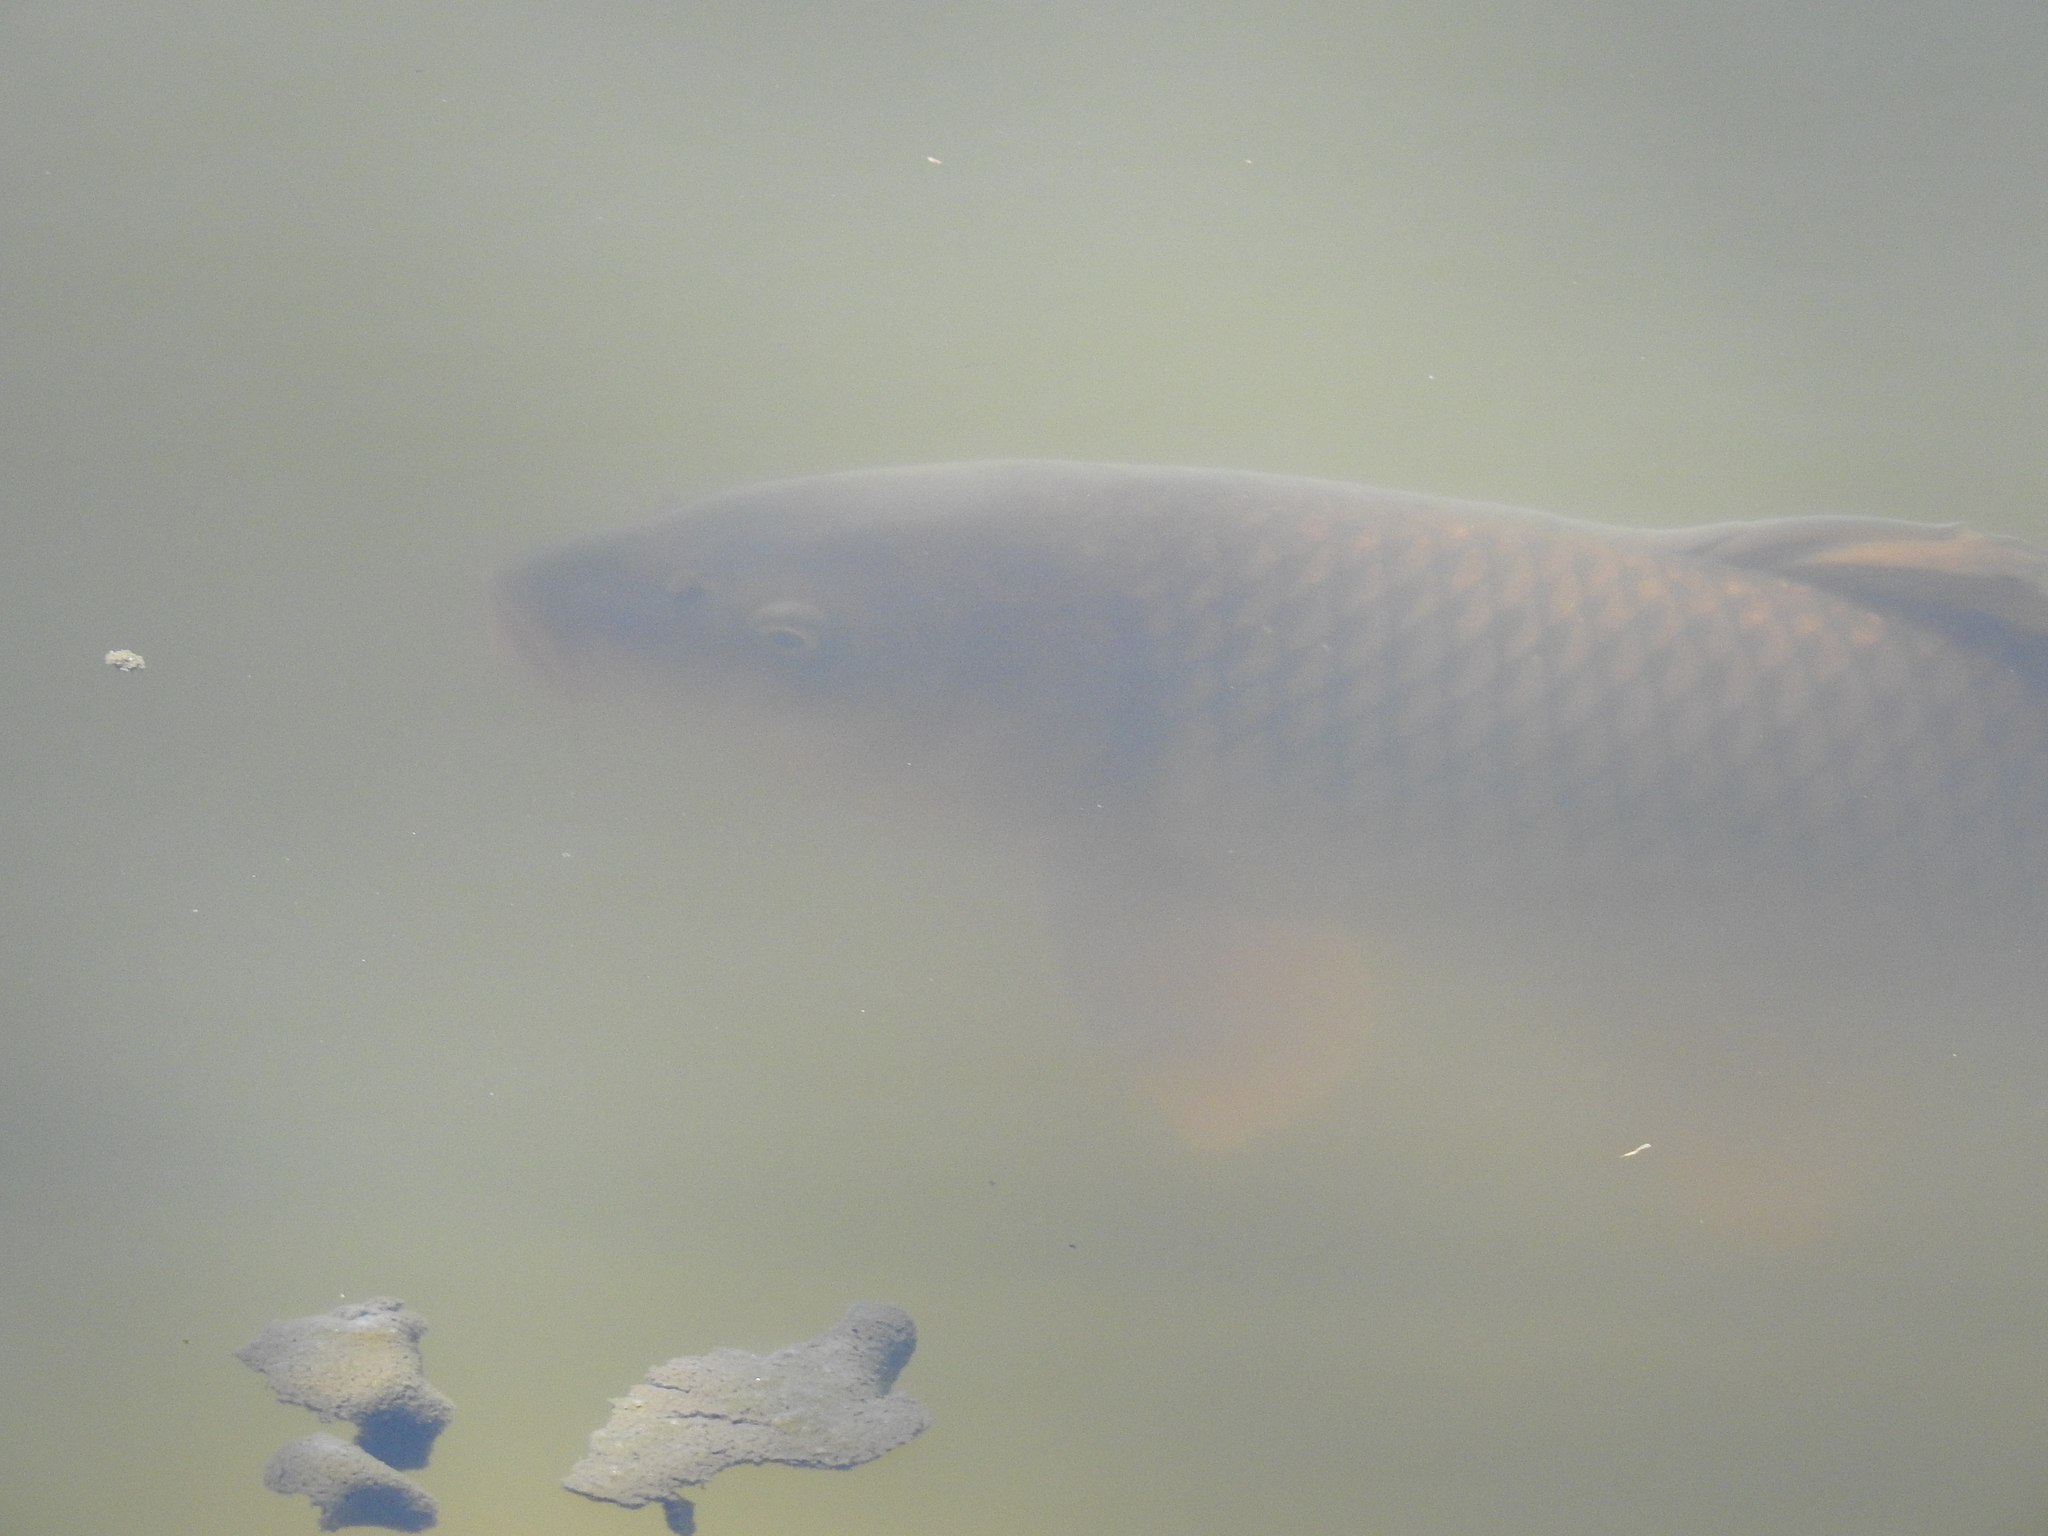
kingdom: Animalia
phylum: Chordata
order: Cypriniformes
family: Cyprinidae
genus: Cyprinus
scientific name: Cyprinus carpio
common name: Common carp
